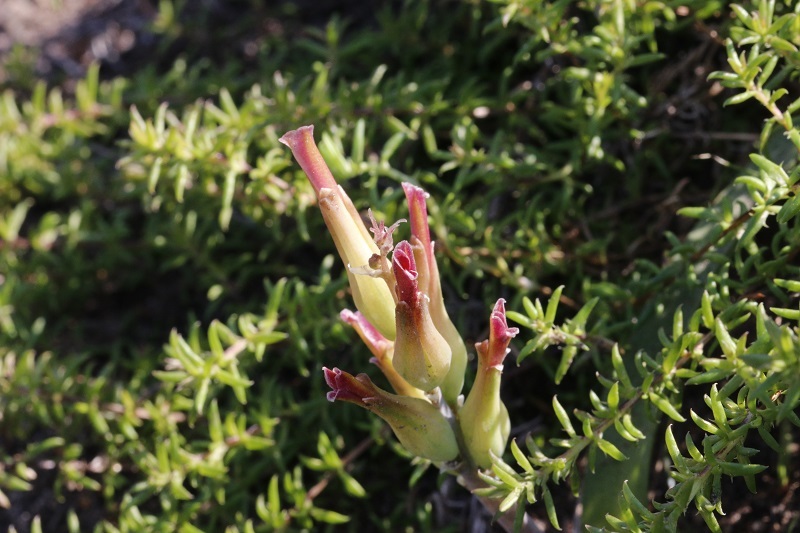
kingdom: Plantae
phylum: Tracheophyta
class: Liliopsida
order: Asparagales
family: Asparagaceae
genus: Lachenalia
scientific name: Lachenalia algoensis
